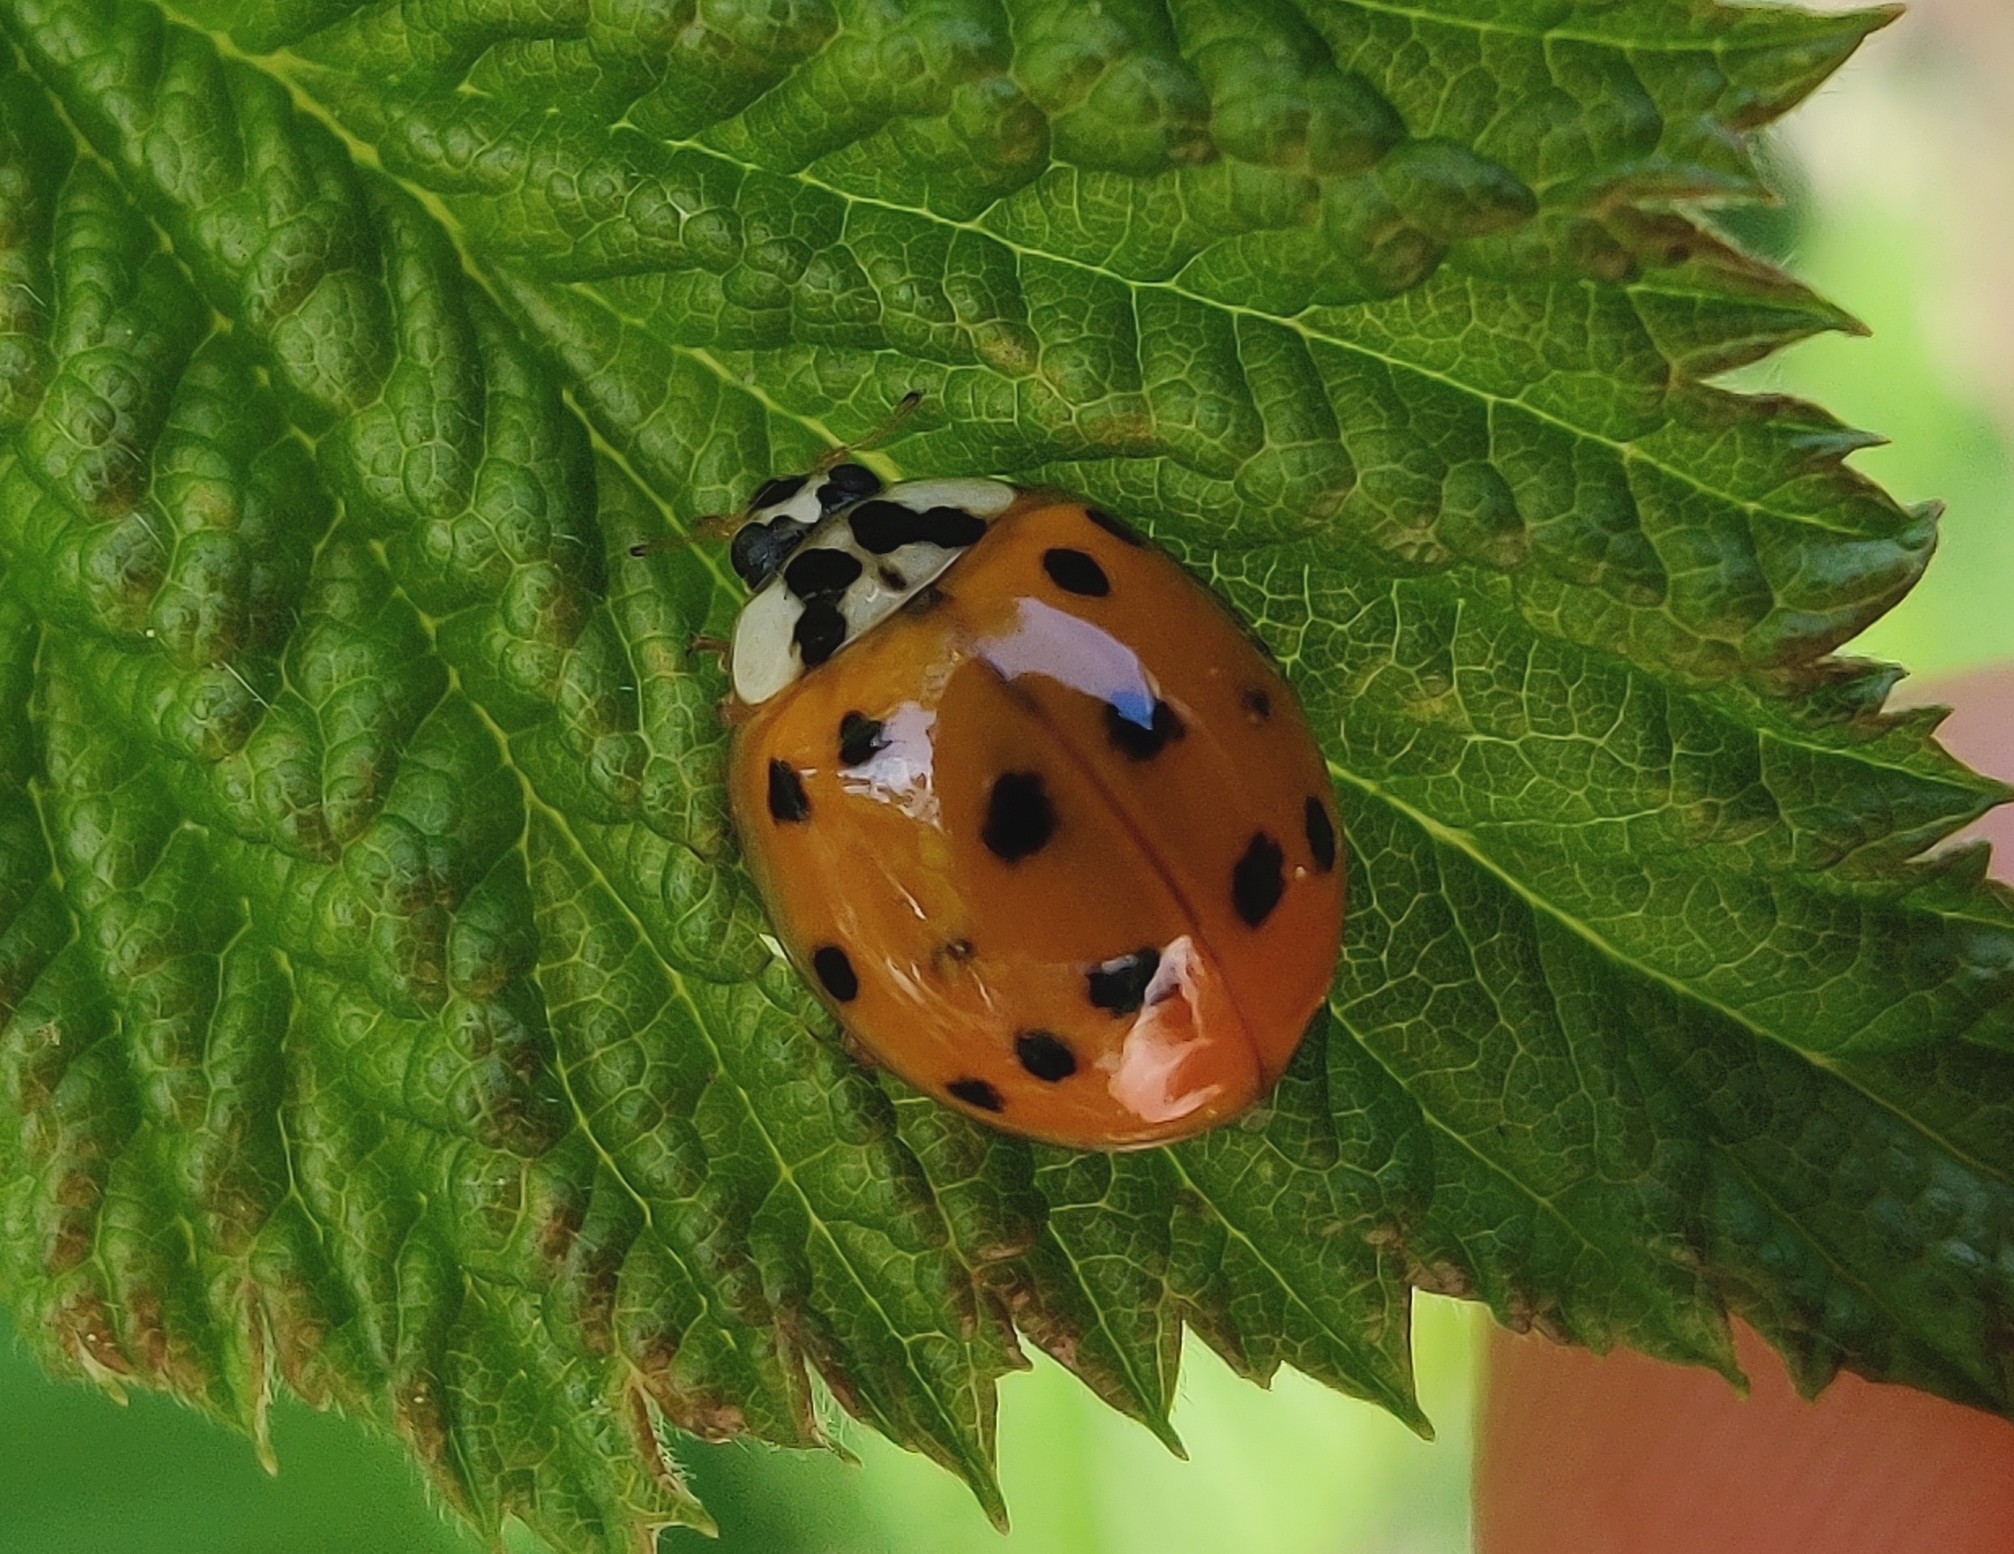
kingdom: Animalia
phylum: Arthropoda
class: Insecta
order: Coleoptera
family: Coccinellidae
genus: Harmonia
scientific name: Harmonia axyridis
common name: Harlequin ladybird
